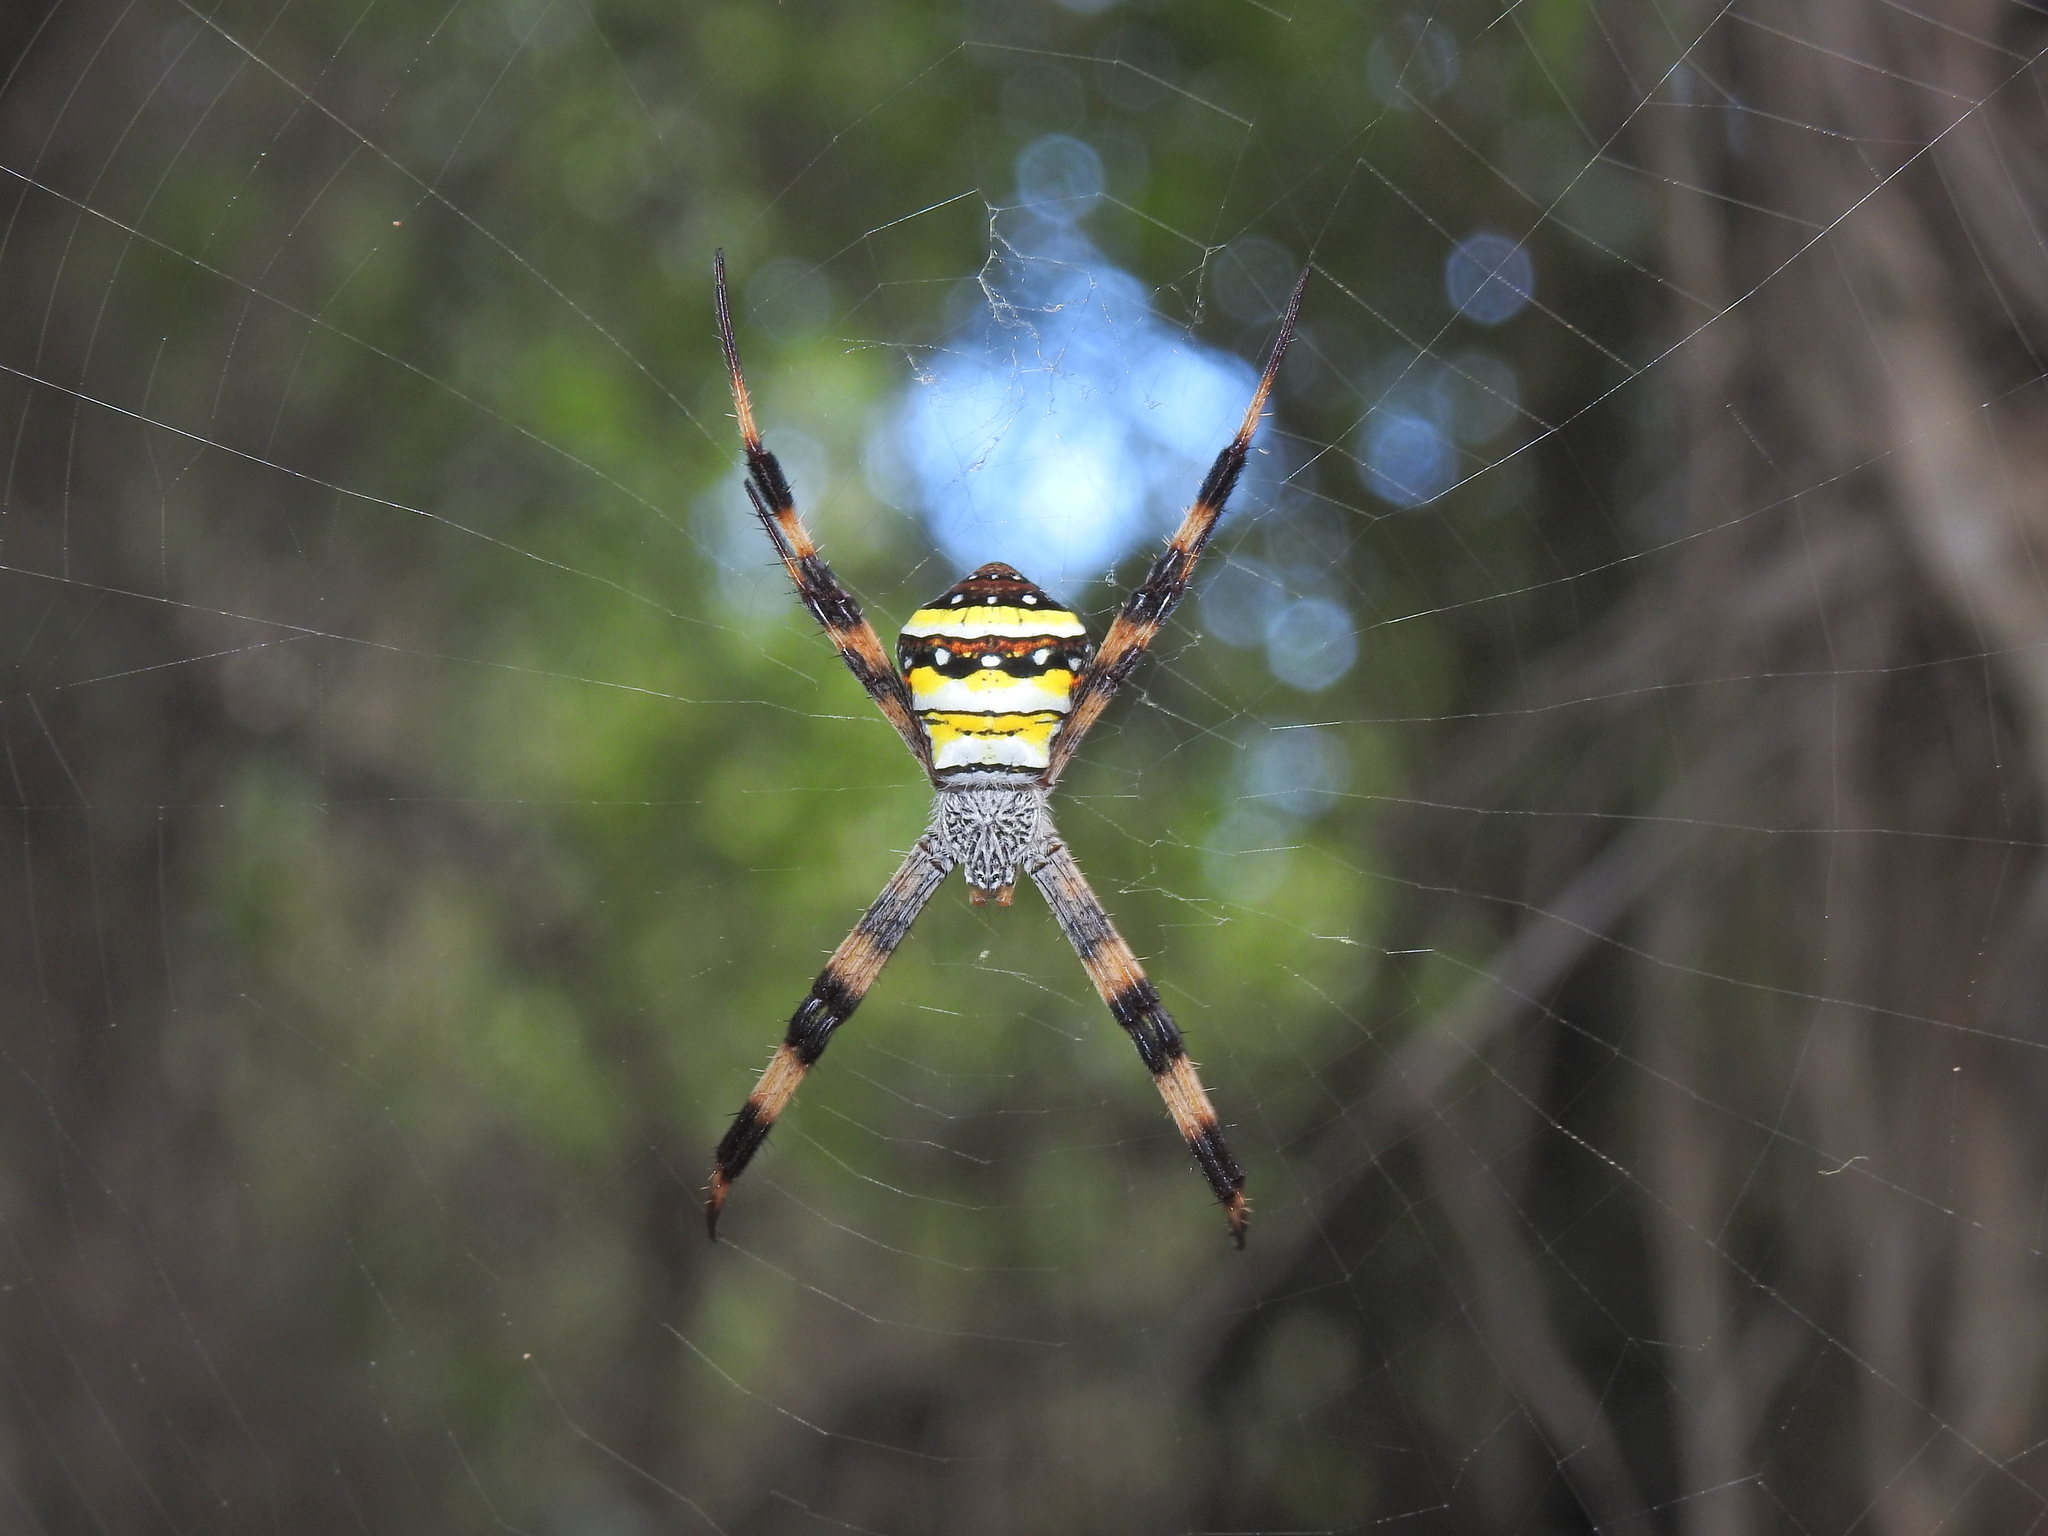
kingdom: Animalia
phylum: Arthropoda
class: Arachnida
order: Araneae
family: Araneidae
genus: Argiope
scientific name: Argiope aetherea
